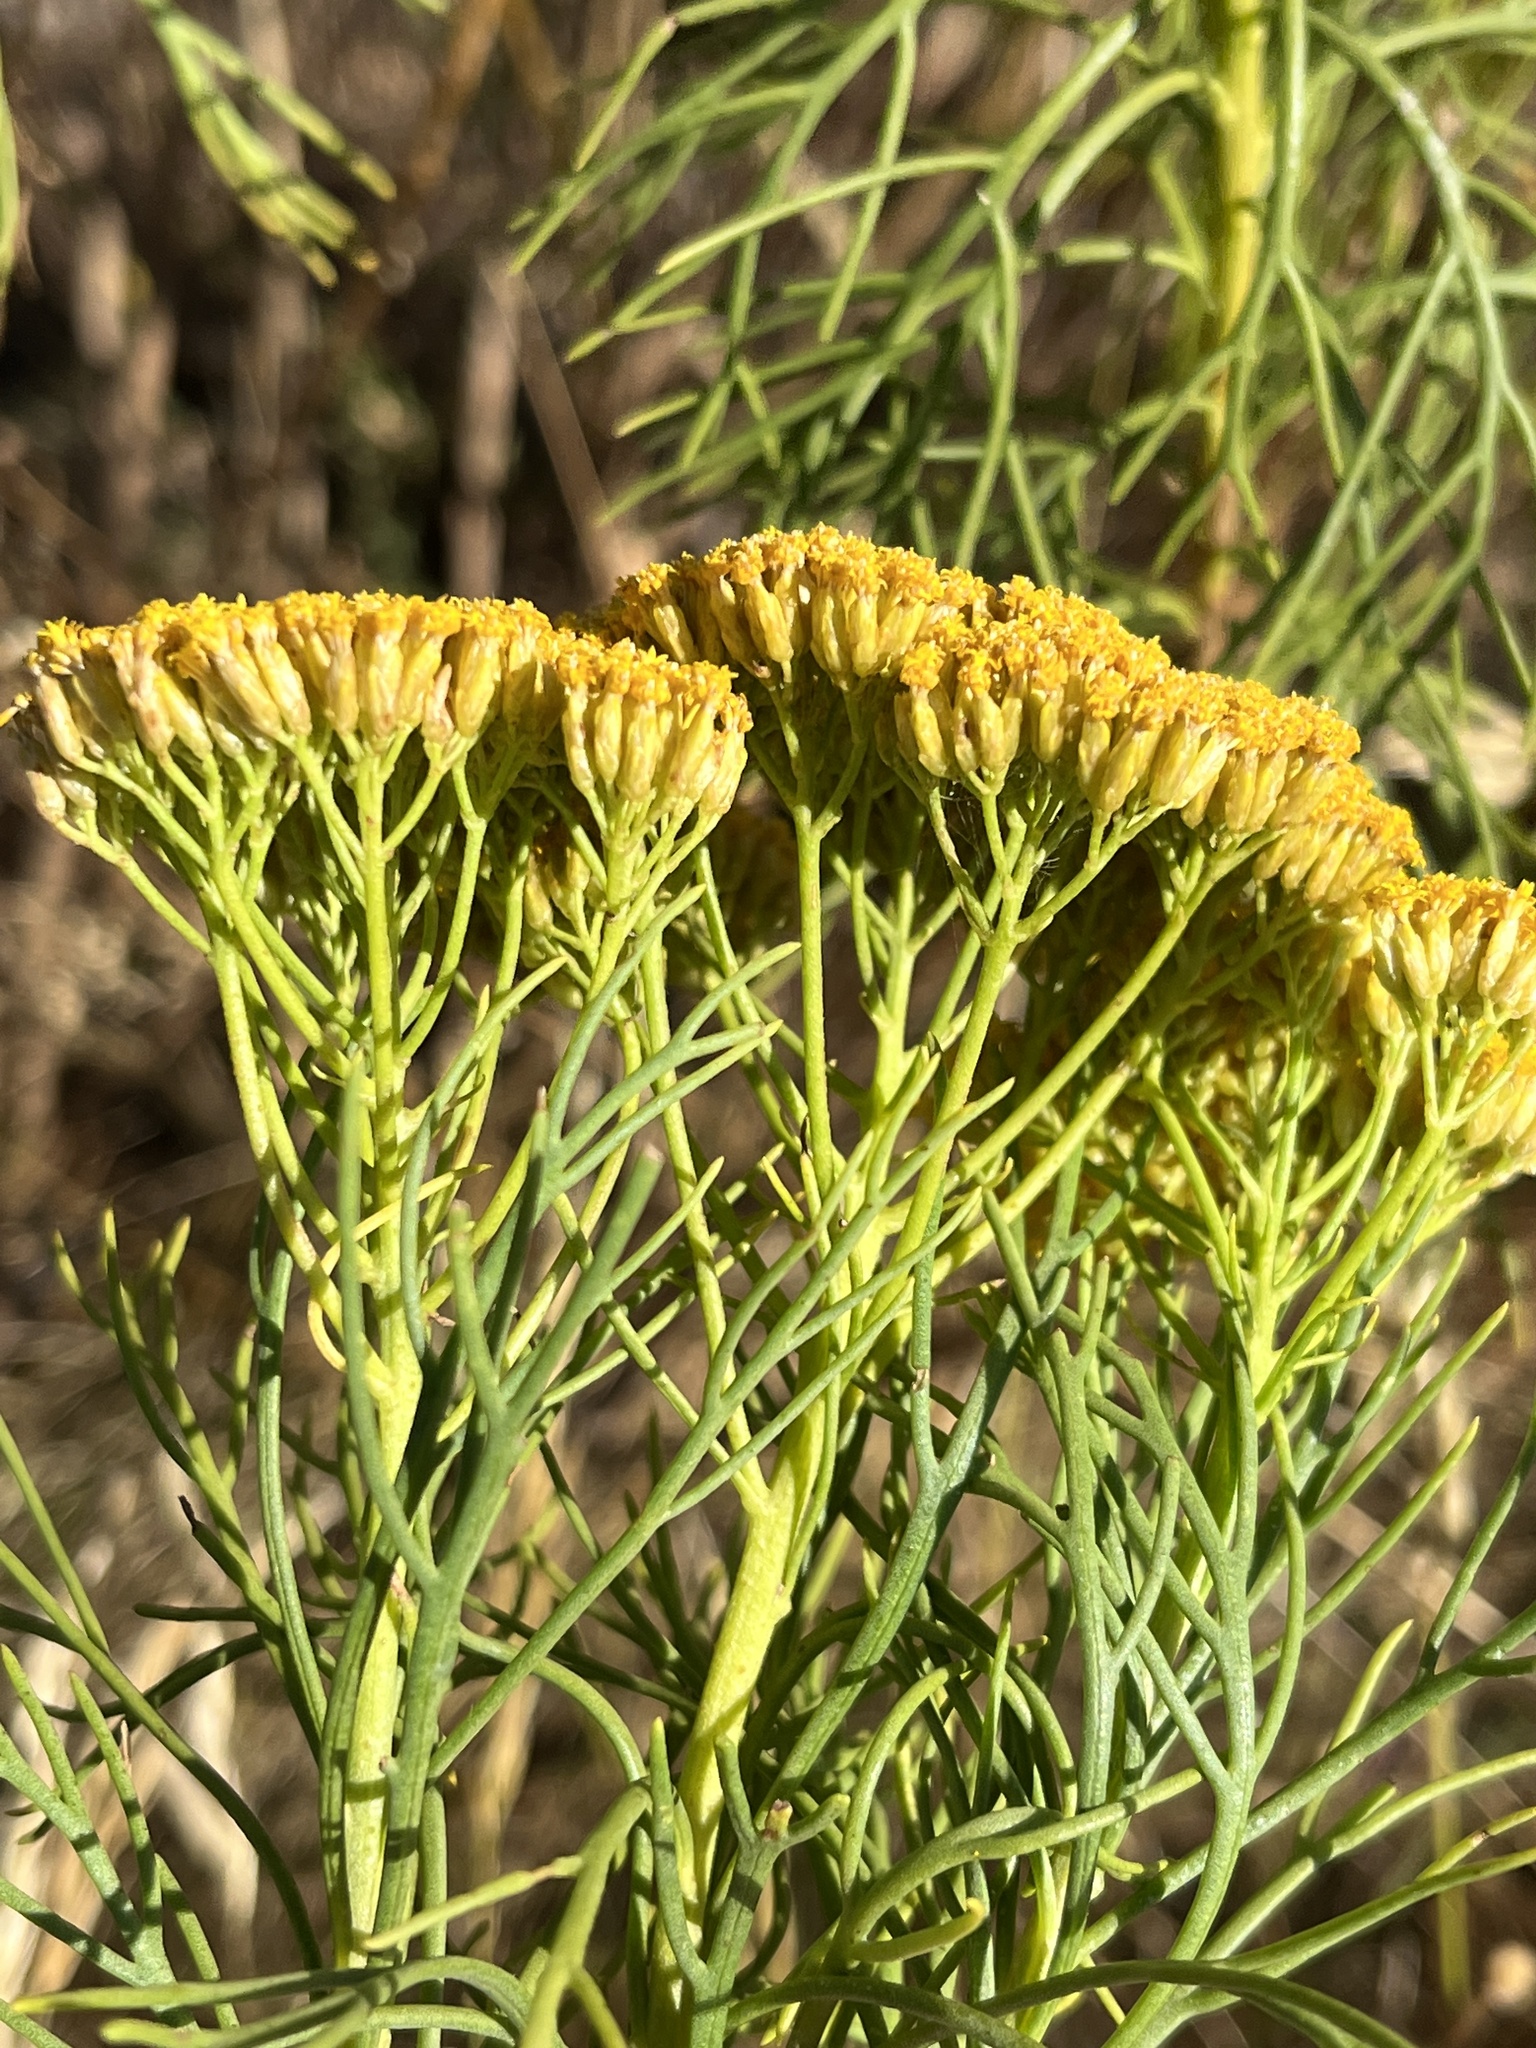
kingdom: Plantae
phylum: Tracheophyta
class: Magnoliopsida
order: Asterales
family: Asteraceae
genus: Hymenolepis
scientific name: Hymenolepis crithmifolia
